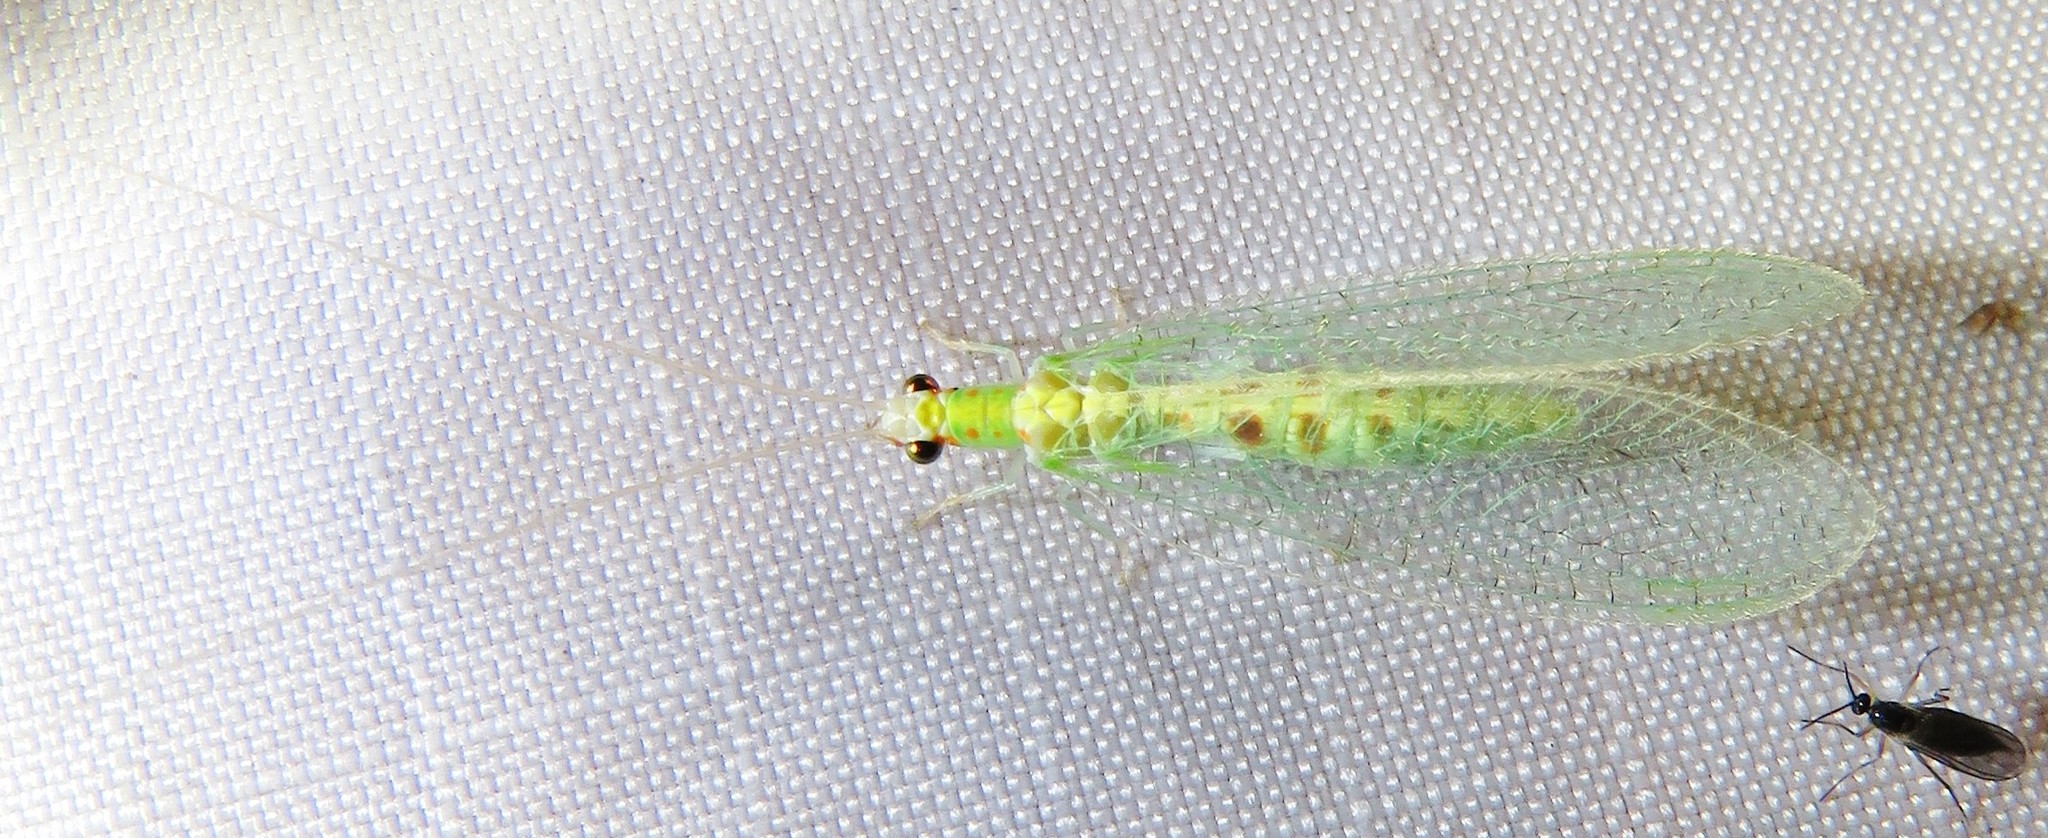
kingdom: Animalia
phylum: Arthropoda
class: Insecta
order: Neuroptera
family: Chrysopidae
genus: Chrysopa
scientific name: Chrysopa quadripunctata
